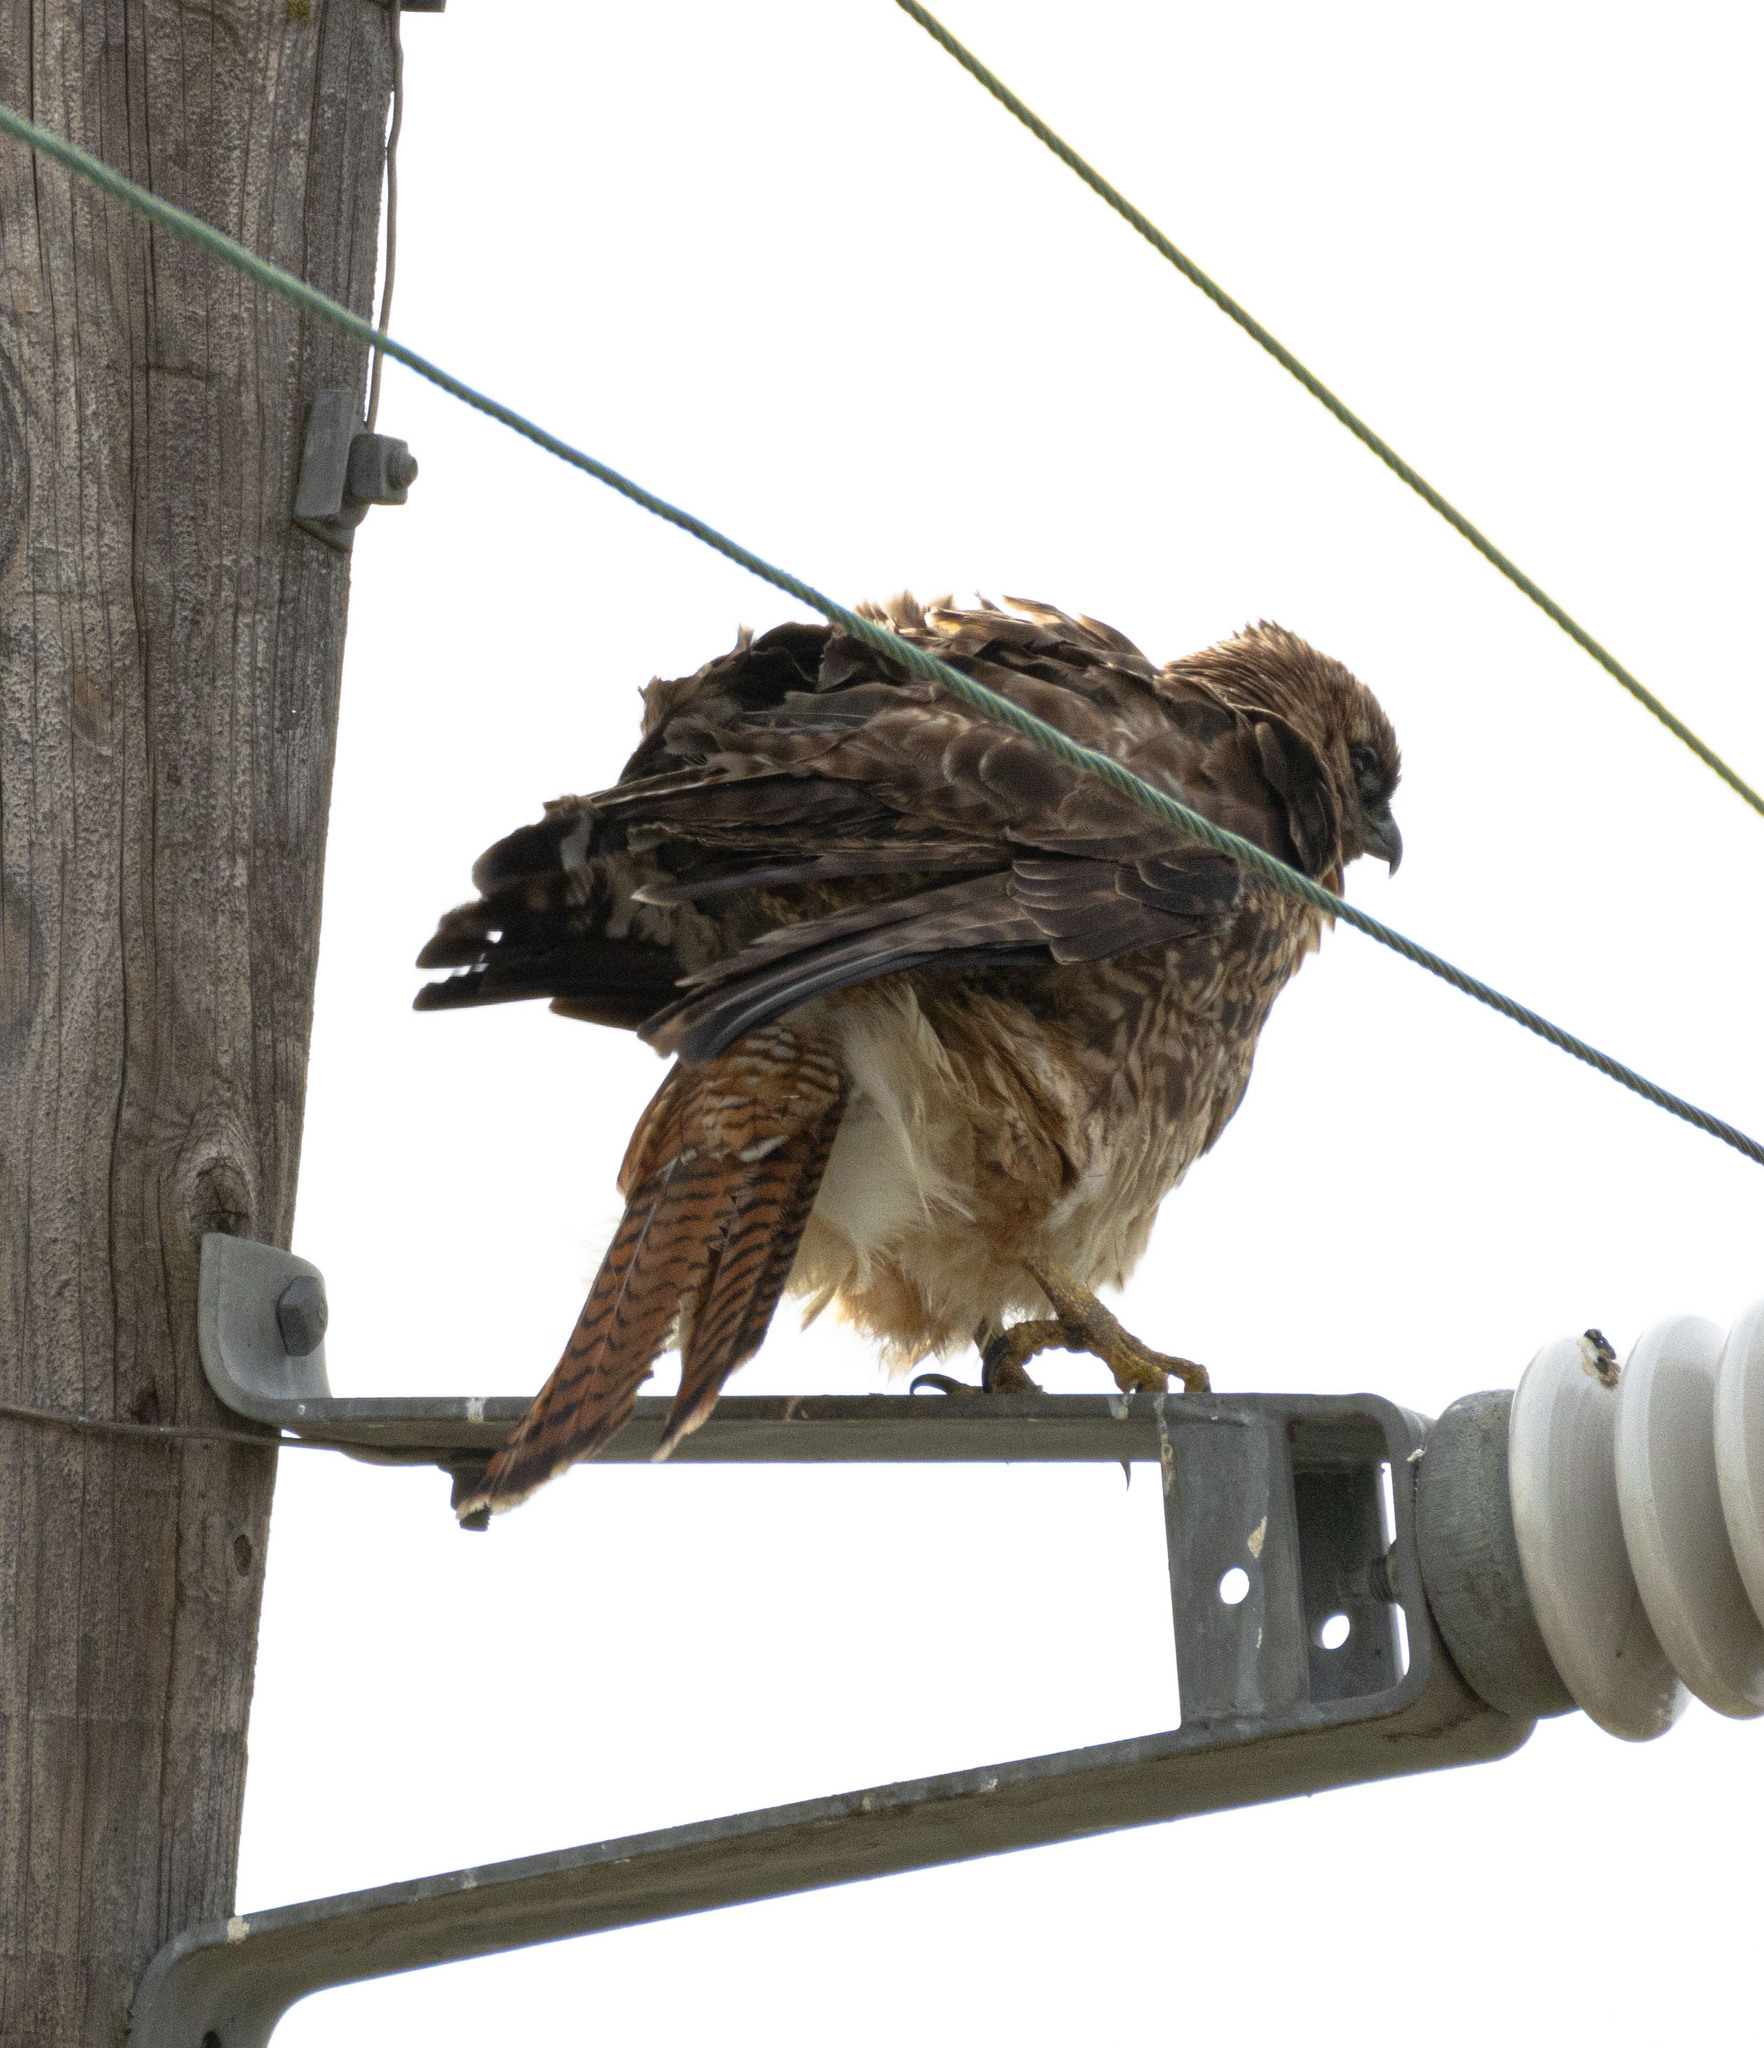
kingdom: Animalia
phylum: Chordata
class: Aves
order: Accipitriformes
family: Accipitridae
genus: Buteo
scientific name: Buteo jamaicensis
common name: Red-tailed hawk
